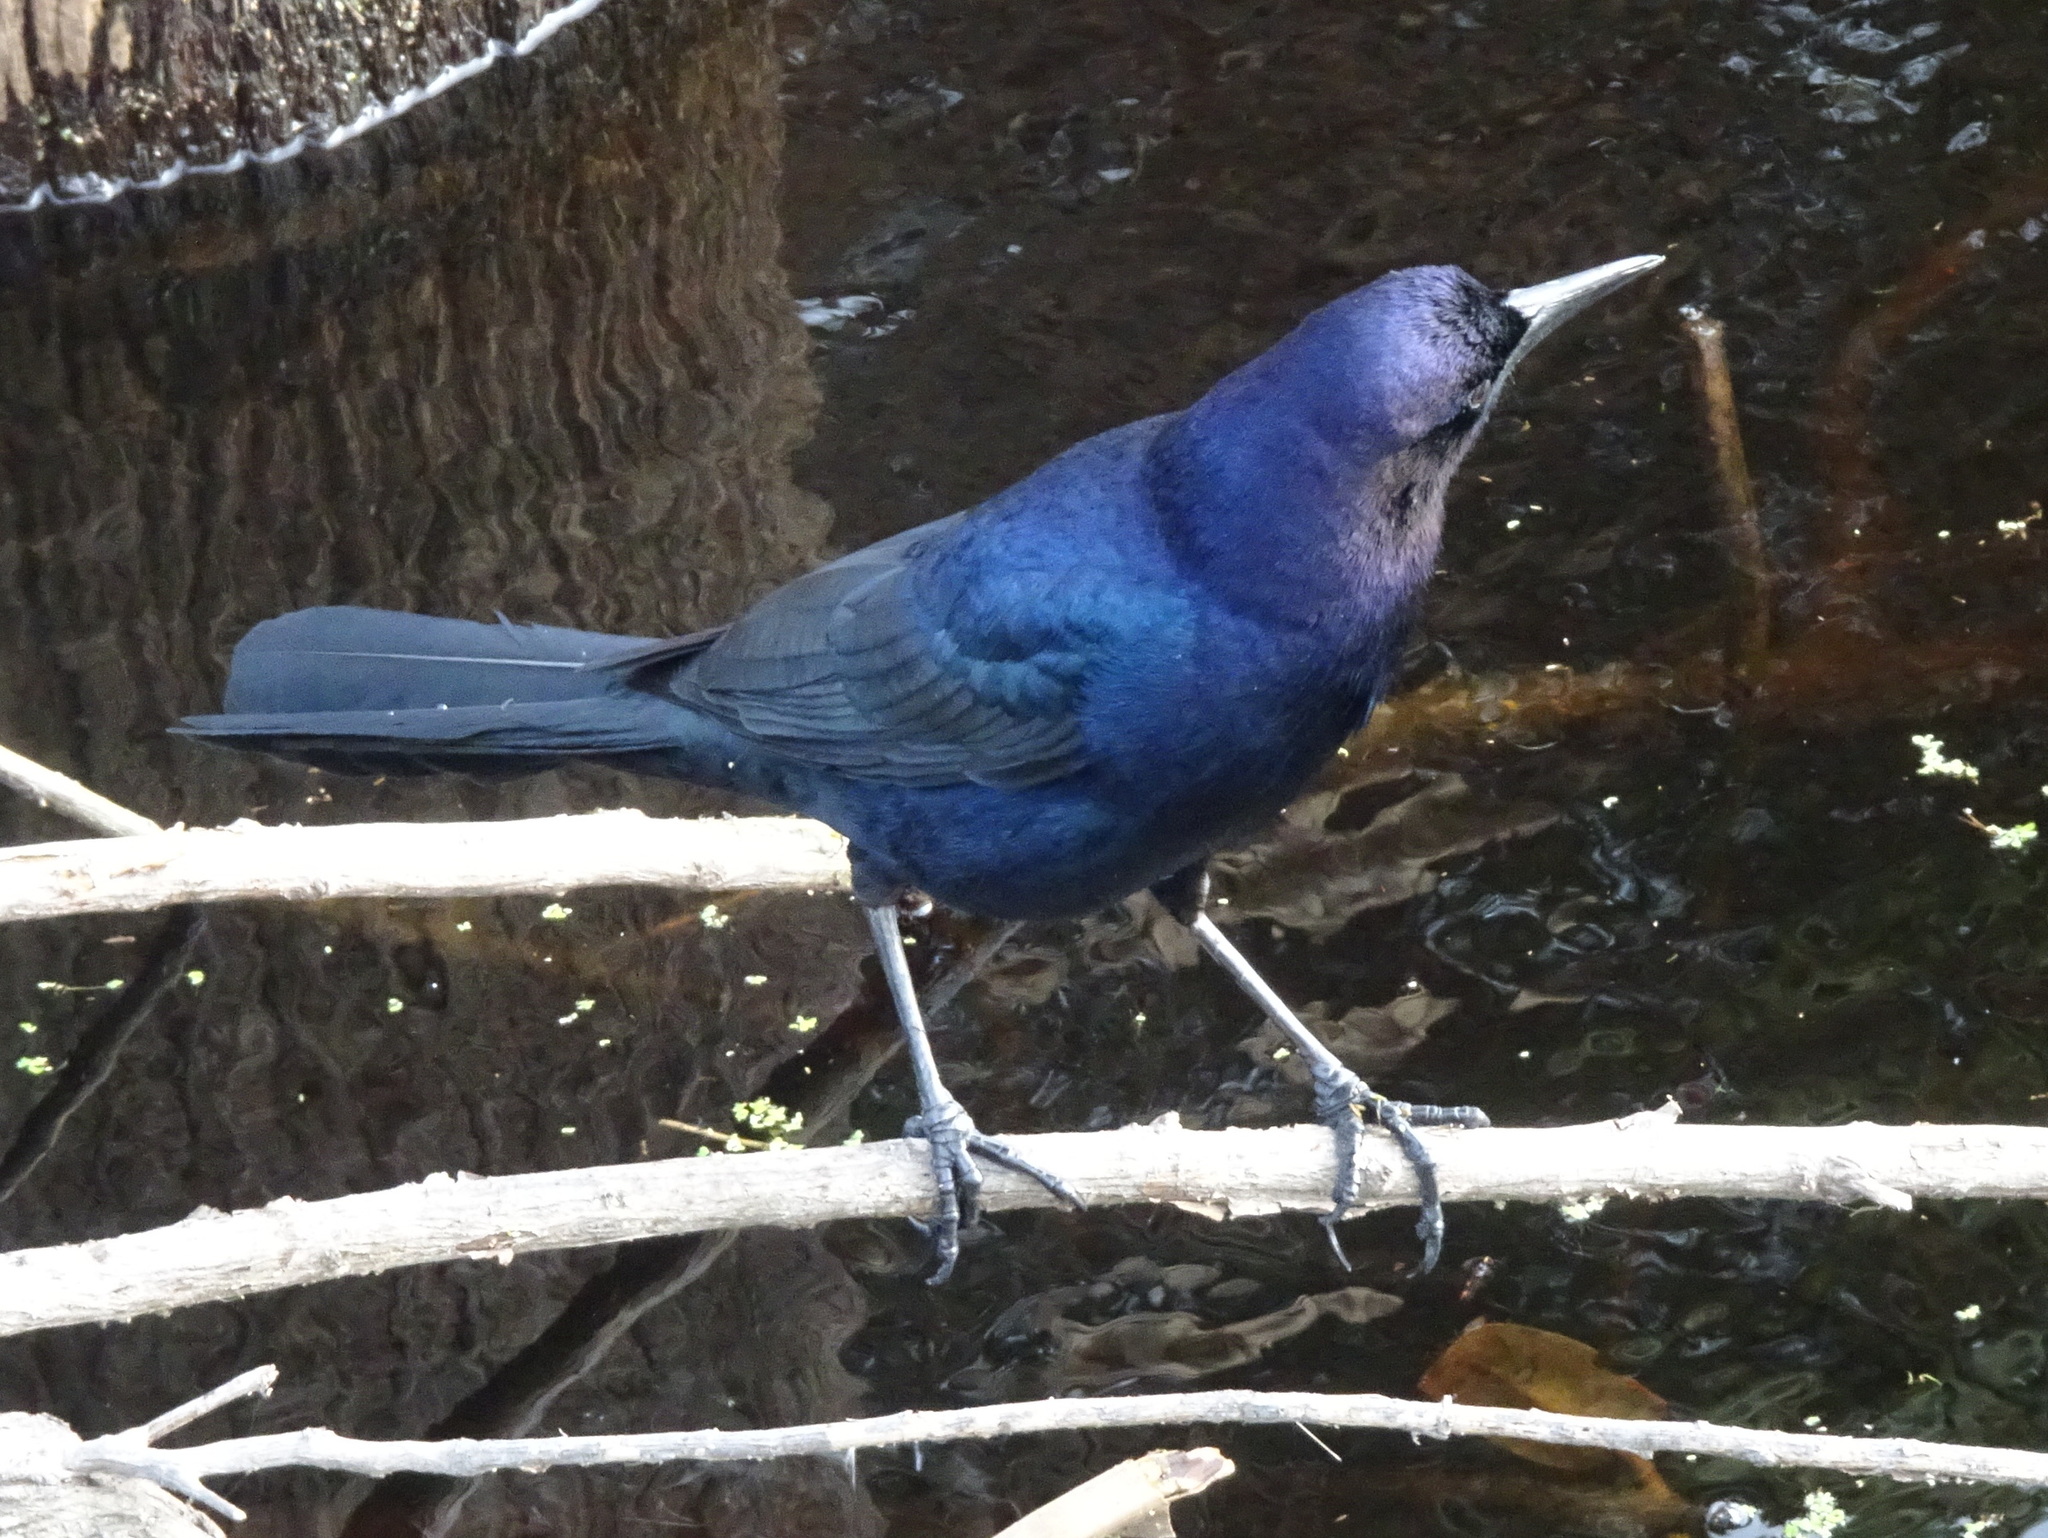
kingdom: Animalia
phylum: Chordata
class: Aves
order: Passeriformes
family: Icteridae
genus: Quiscalus
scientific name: Quiscalus major
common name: Boat-tailed grackle
